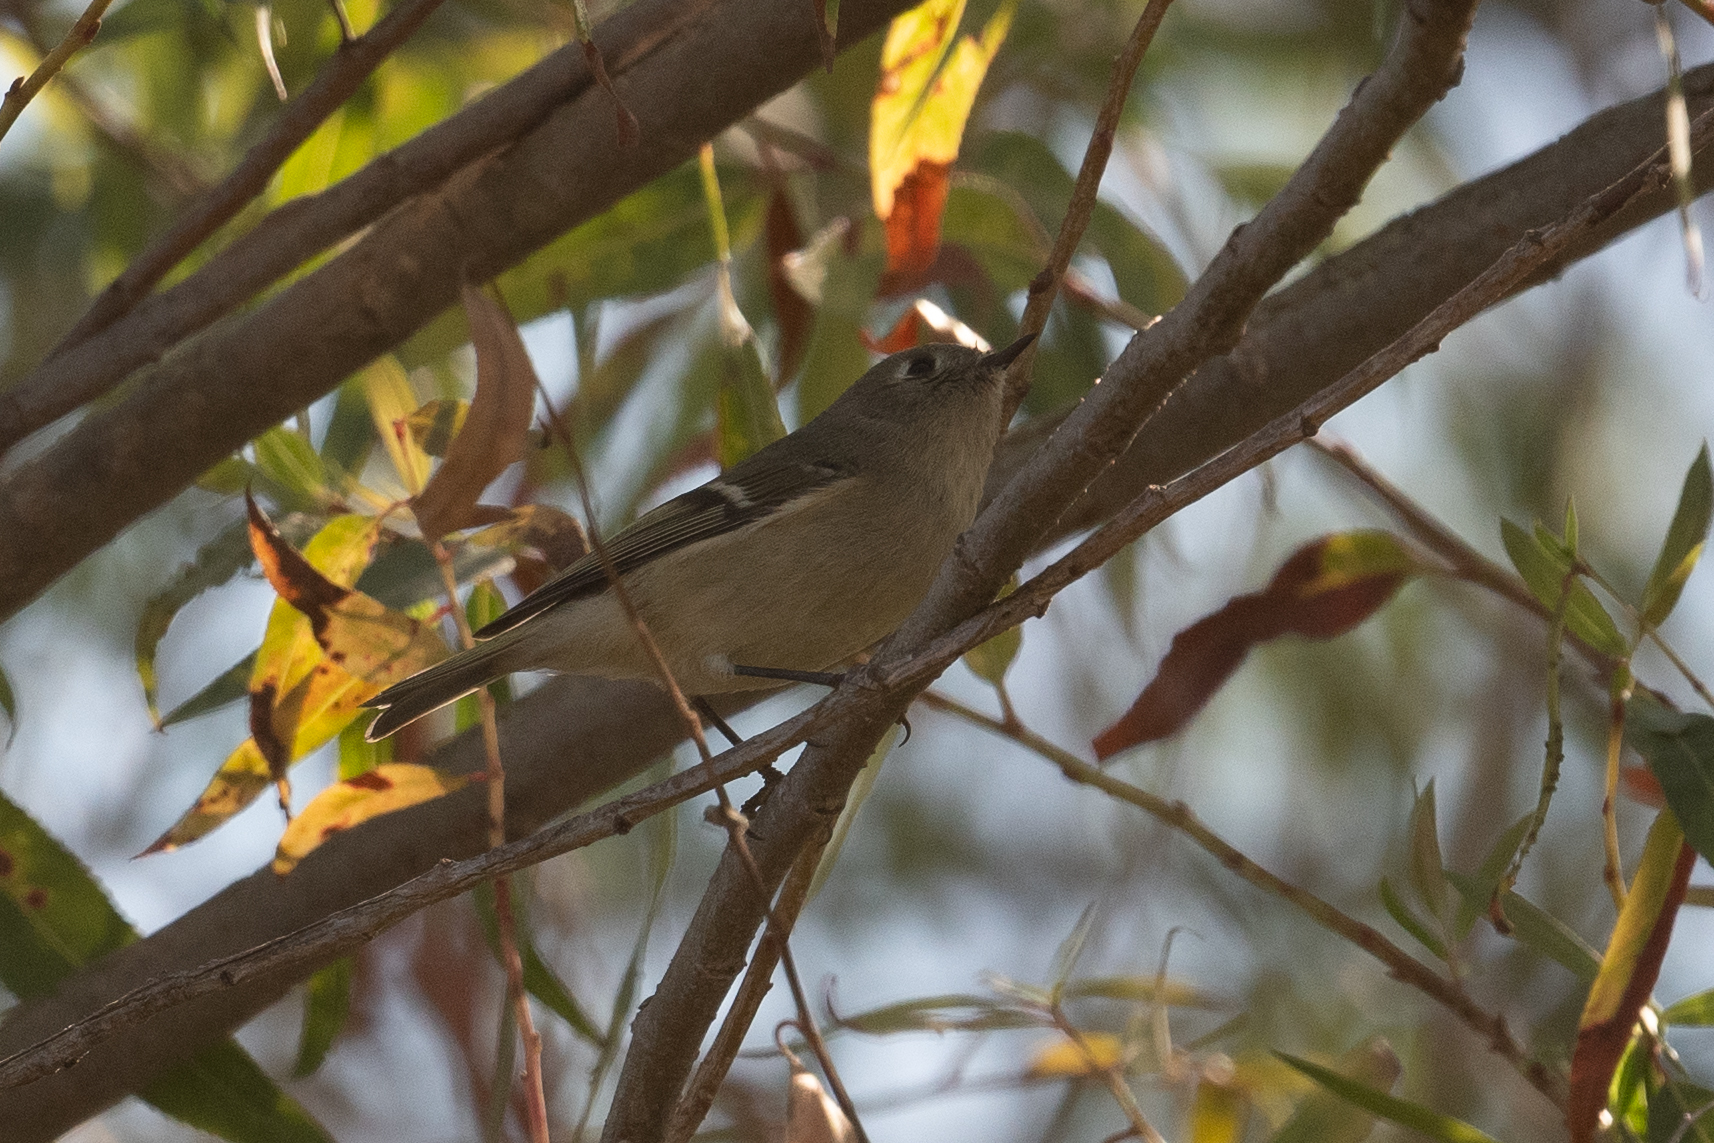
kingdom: Animalia
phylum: Chordata
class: Aves
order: Passeriformes
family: Regulidae
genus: Regulus
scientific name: Regulus calendula
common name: Ruby-crowned kinglet
